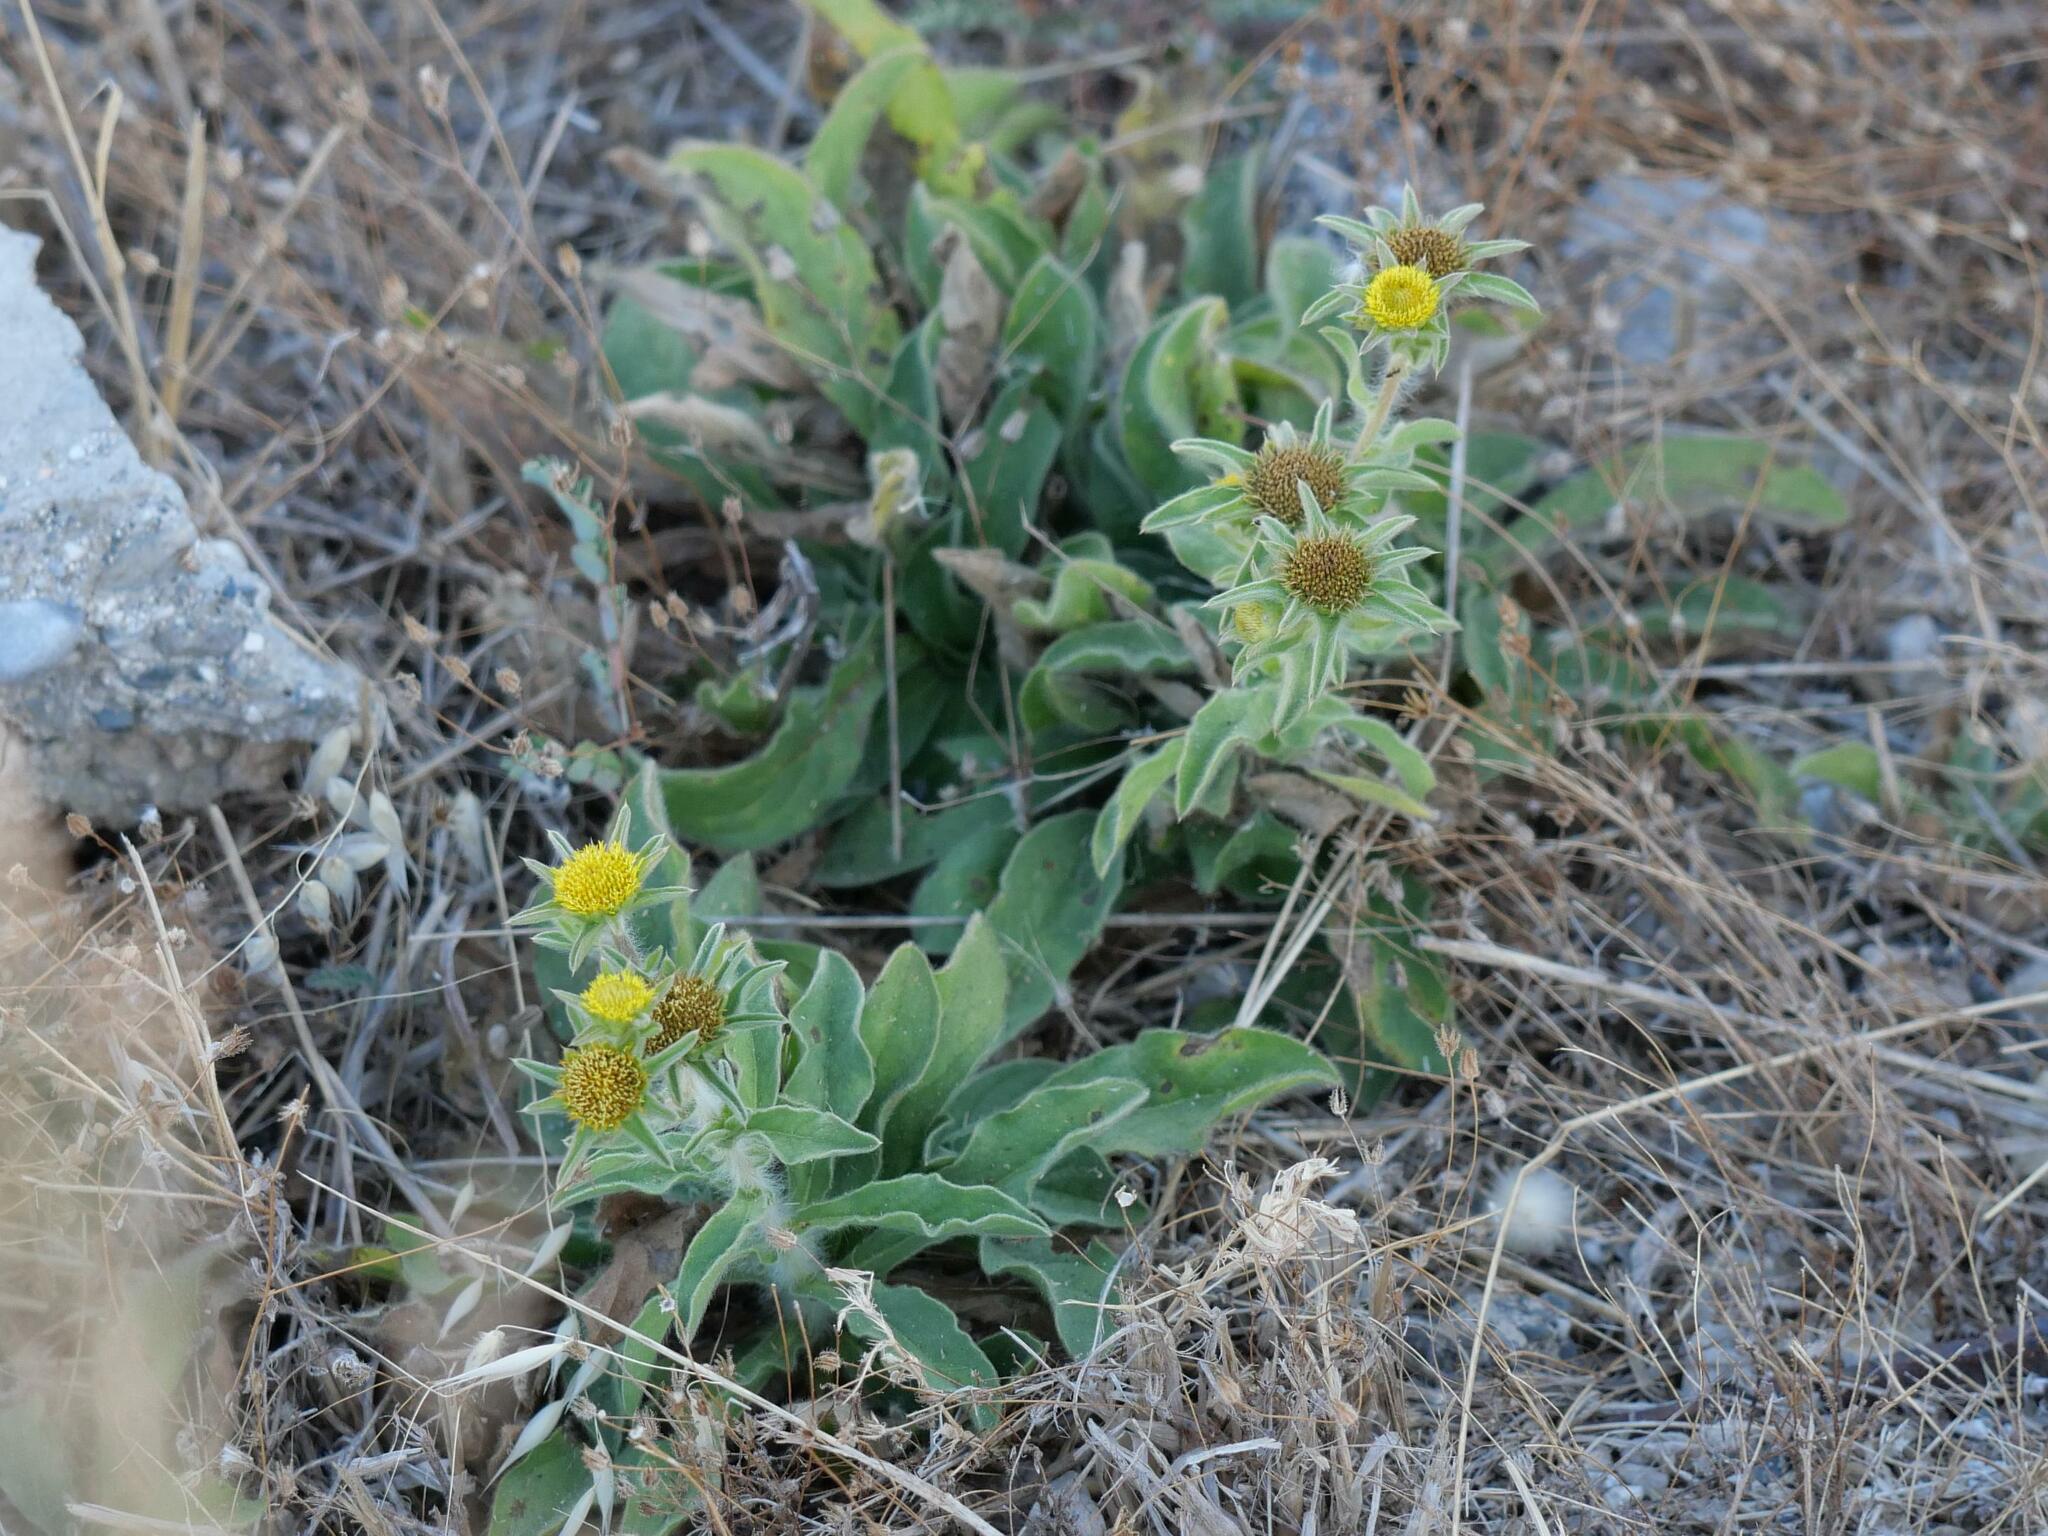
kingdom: Plantae
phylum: Tracheophyta
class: Magnoliopsida
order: Asterales
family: Asteraceae
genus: Pallenis
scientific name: Pallenis spinosa
